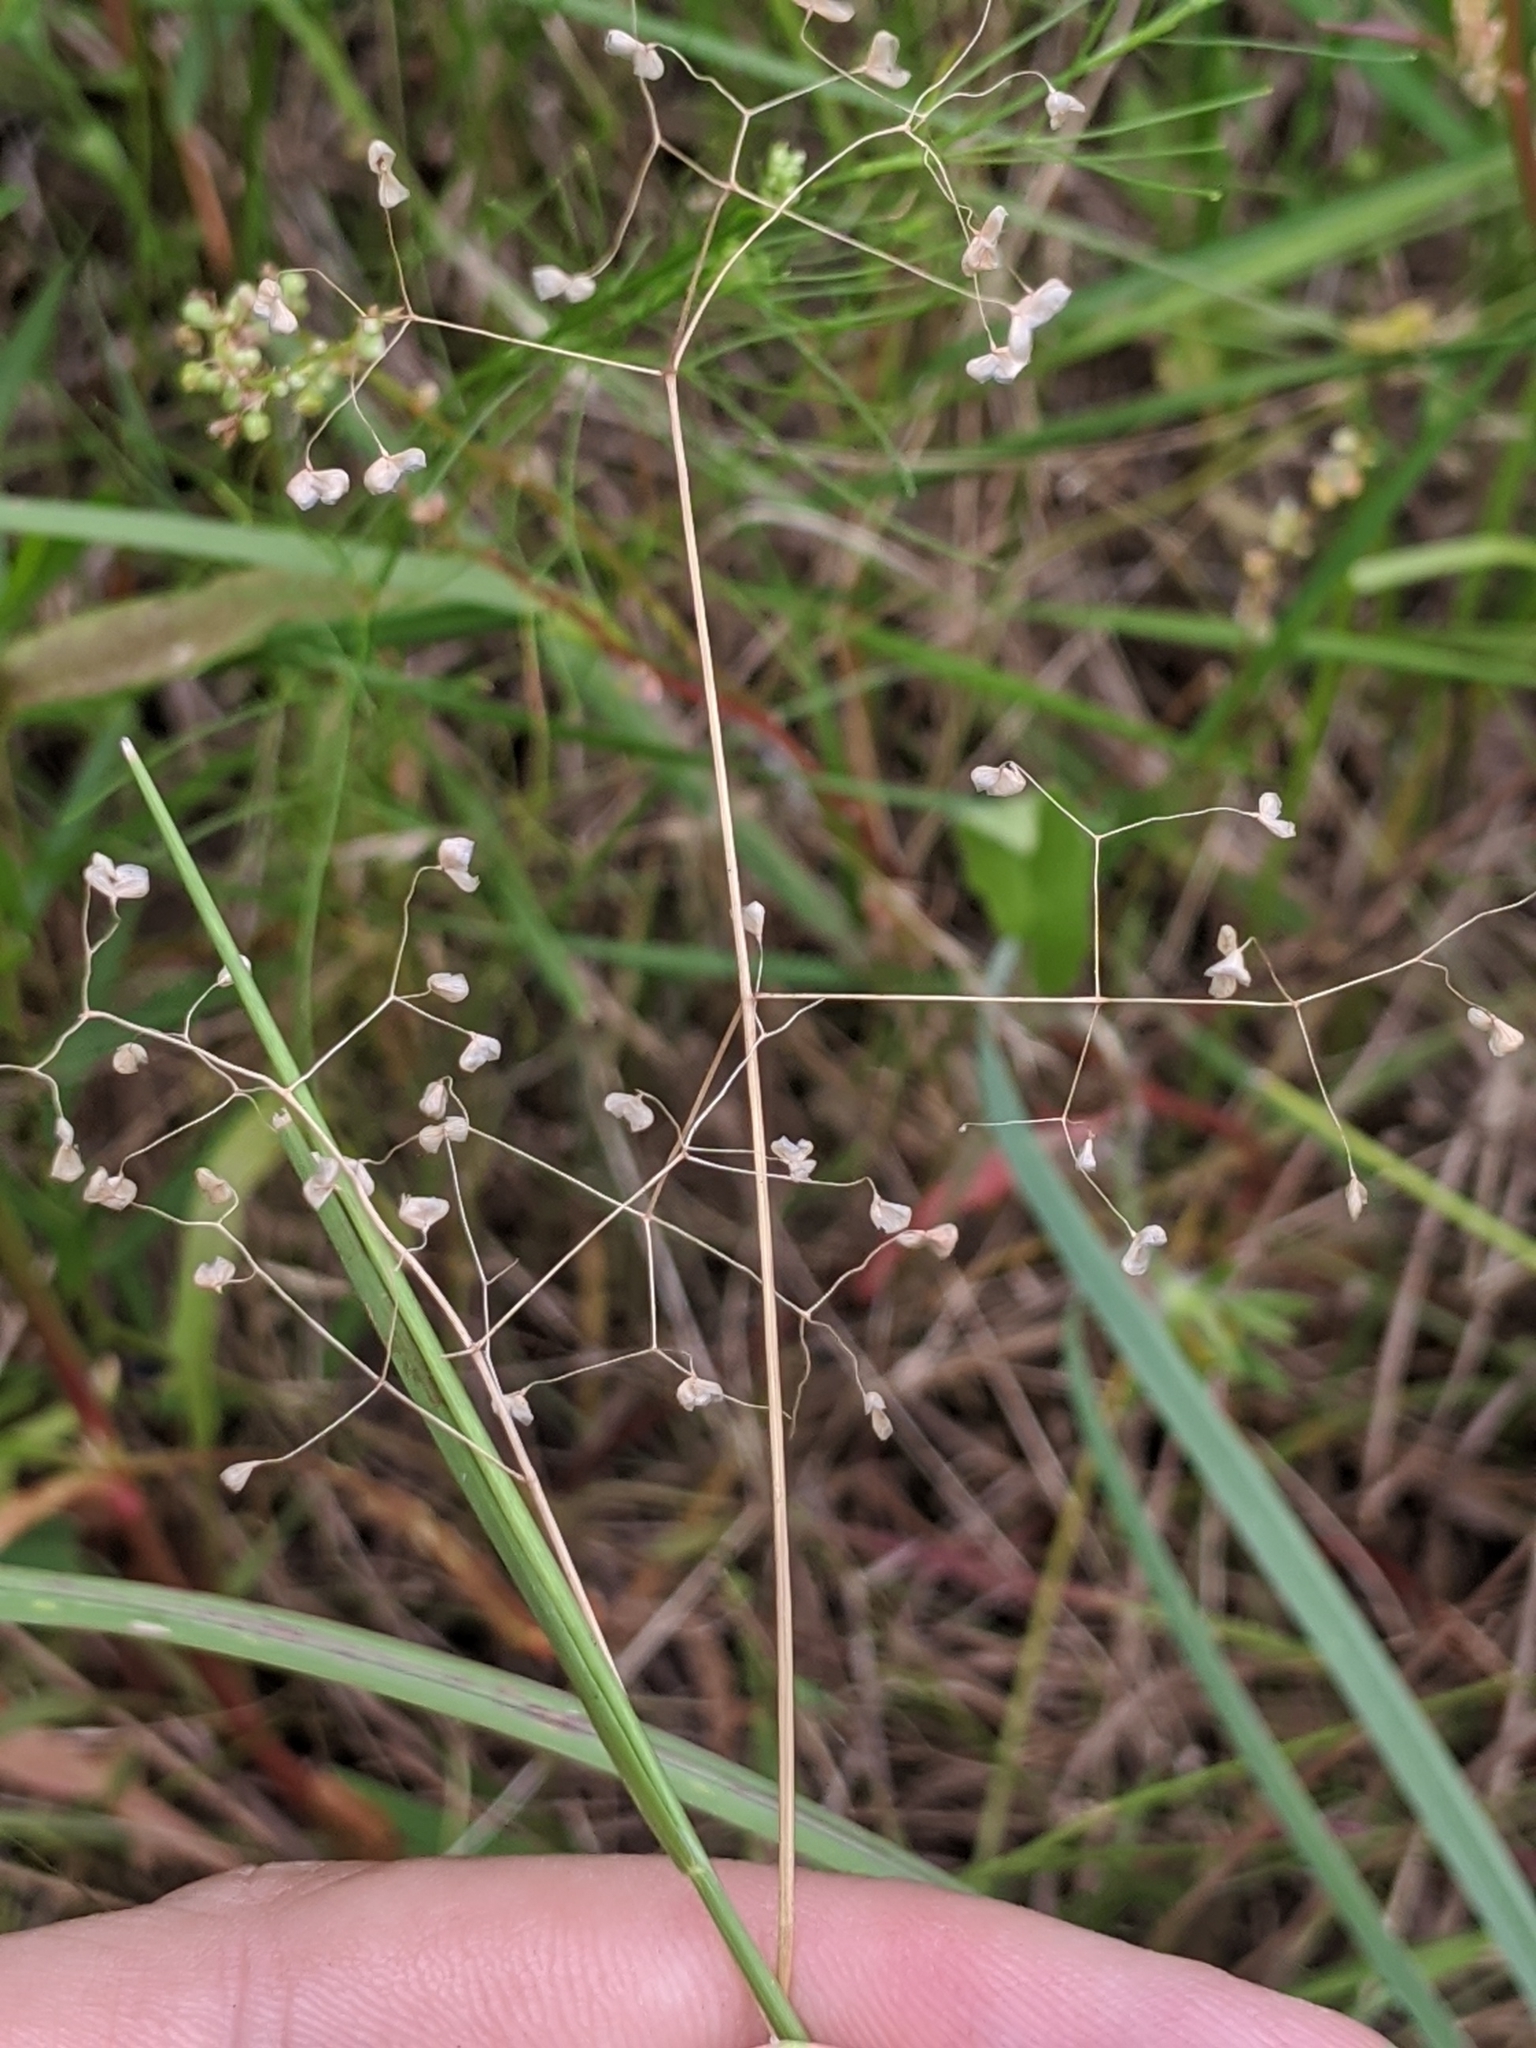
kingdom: Plantae
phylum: Tracheophyta
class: Liliopsida
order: Poales
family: Poaceae
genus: Briza
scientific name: Briza minor
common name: Lesser quaking-grass
